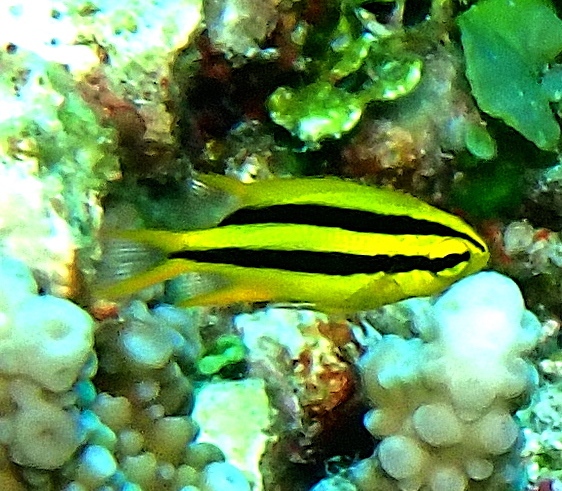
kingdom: Animalia
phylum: Chordata
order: Perciformes
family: Pomacentridae
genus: Neoglyphidodon
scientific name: Neoglyphidodon nigroris
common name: Behn's damsel
